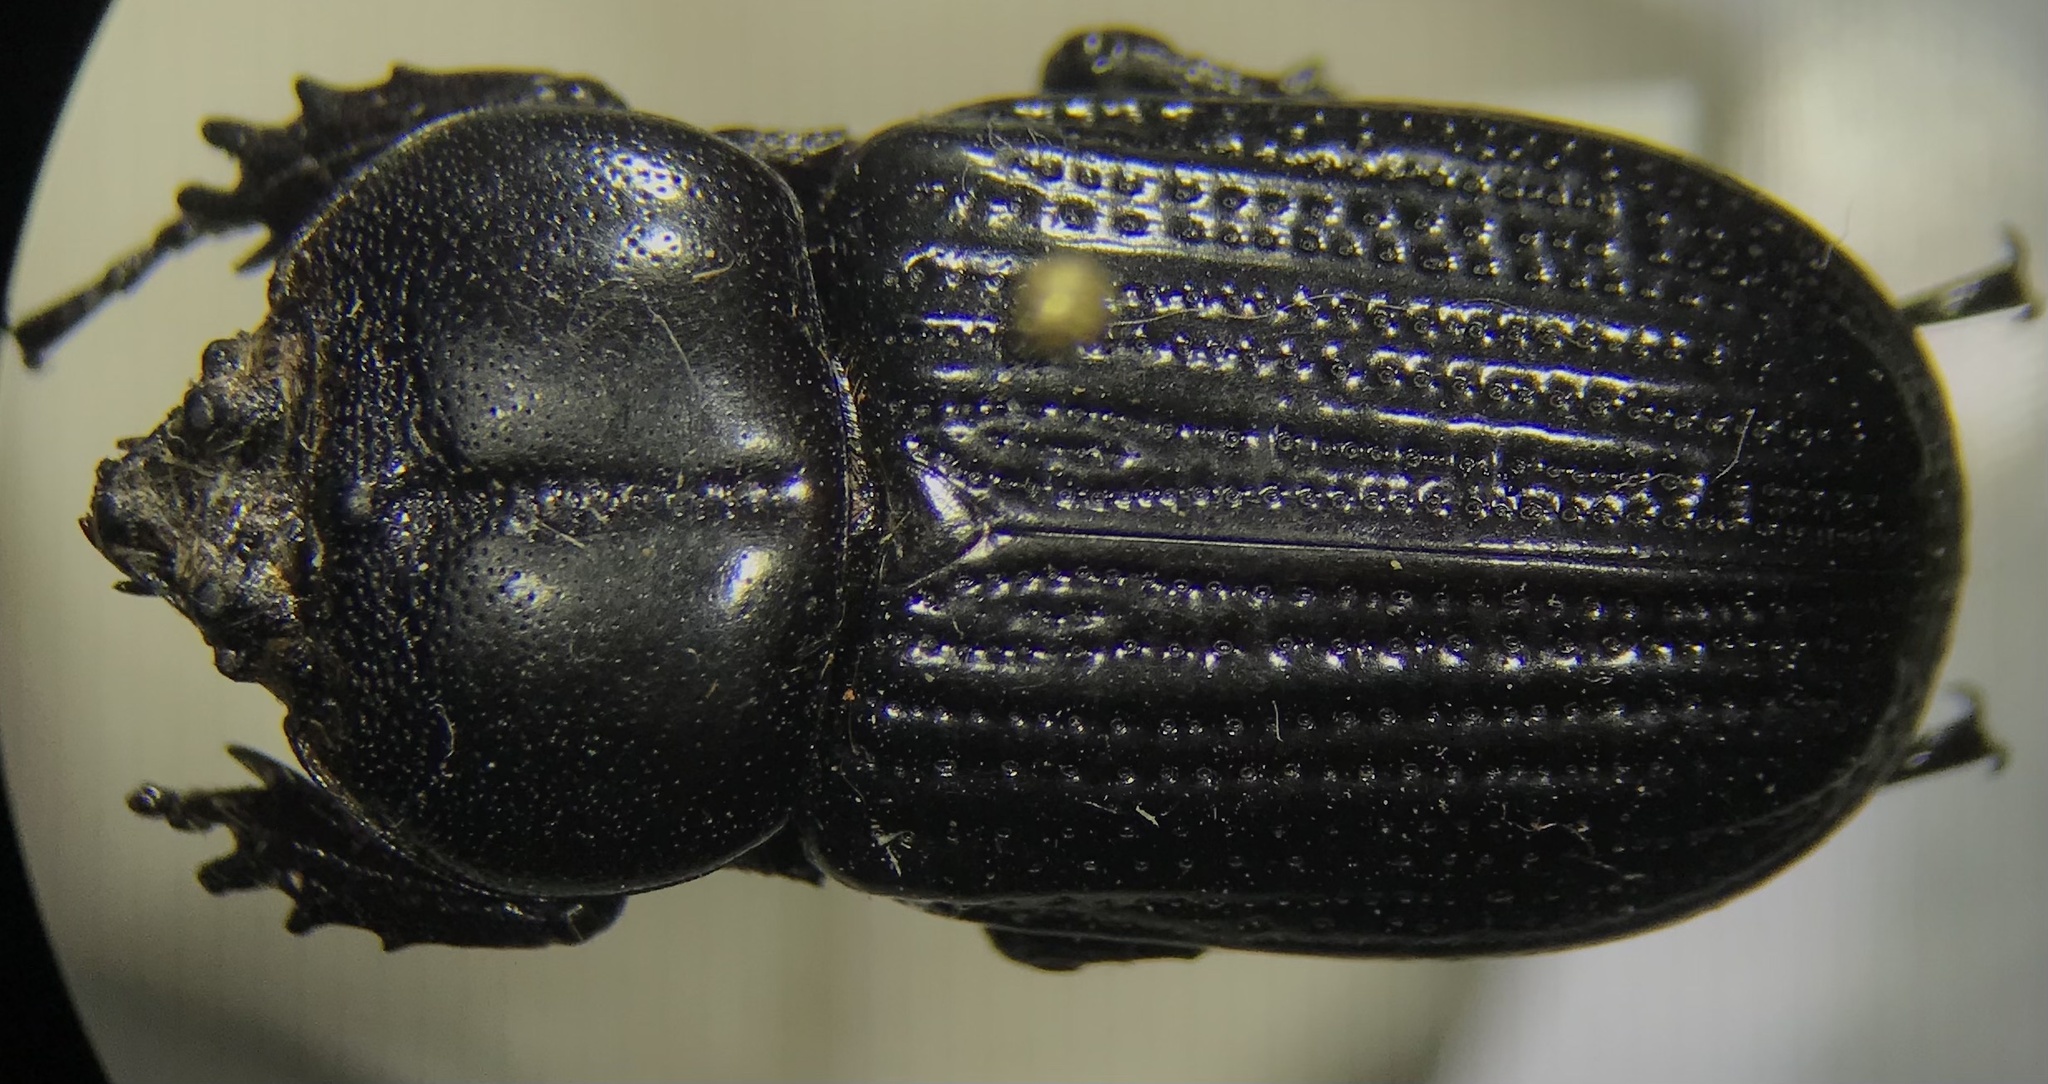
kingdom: Animalia
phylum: Arthropoda
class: Insecta
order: Coleoptera
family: Scarabaeidae
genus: Phileurus
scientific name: Phileurus valgus
